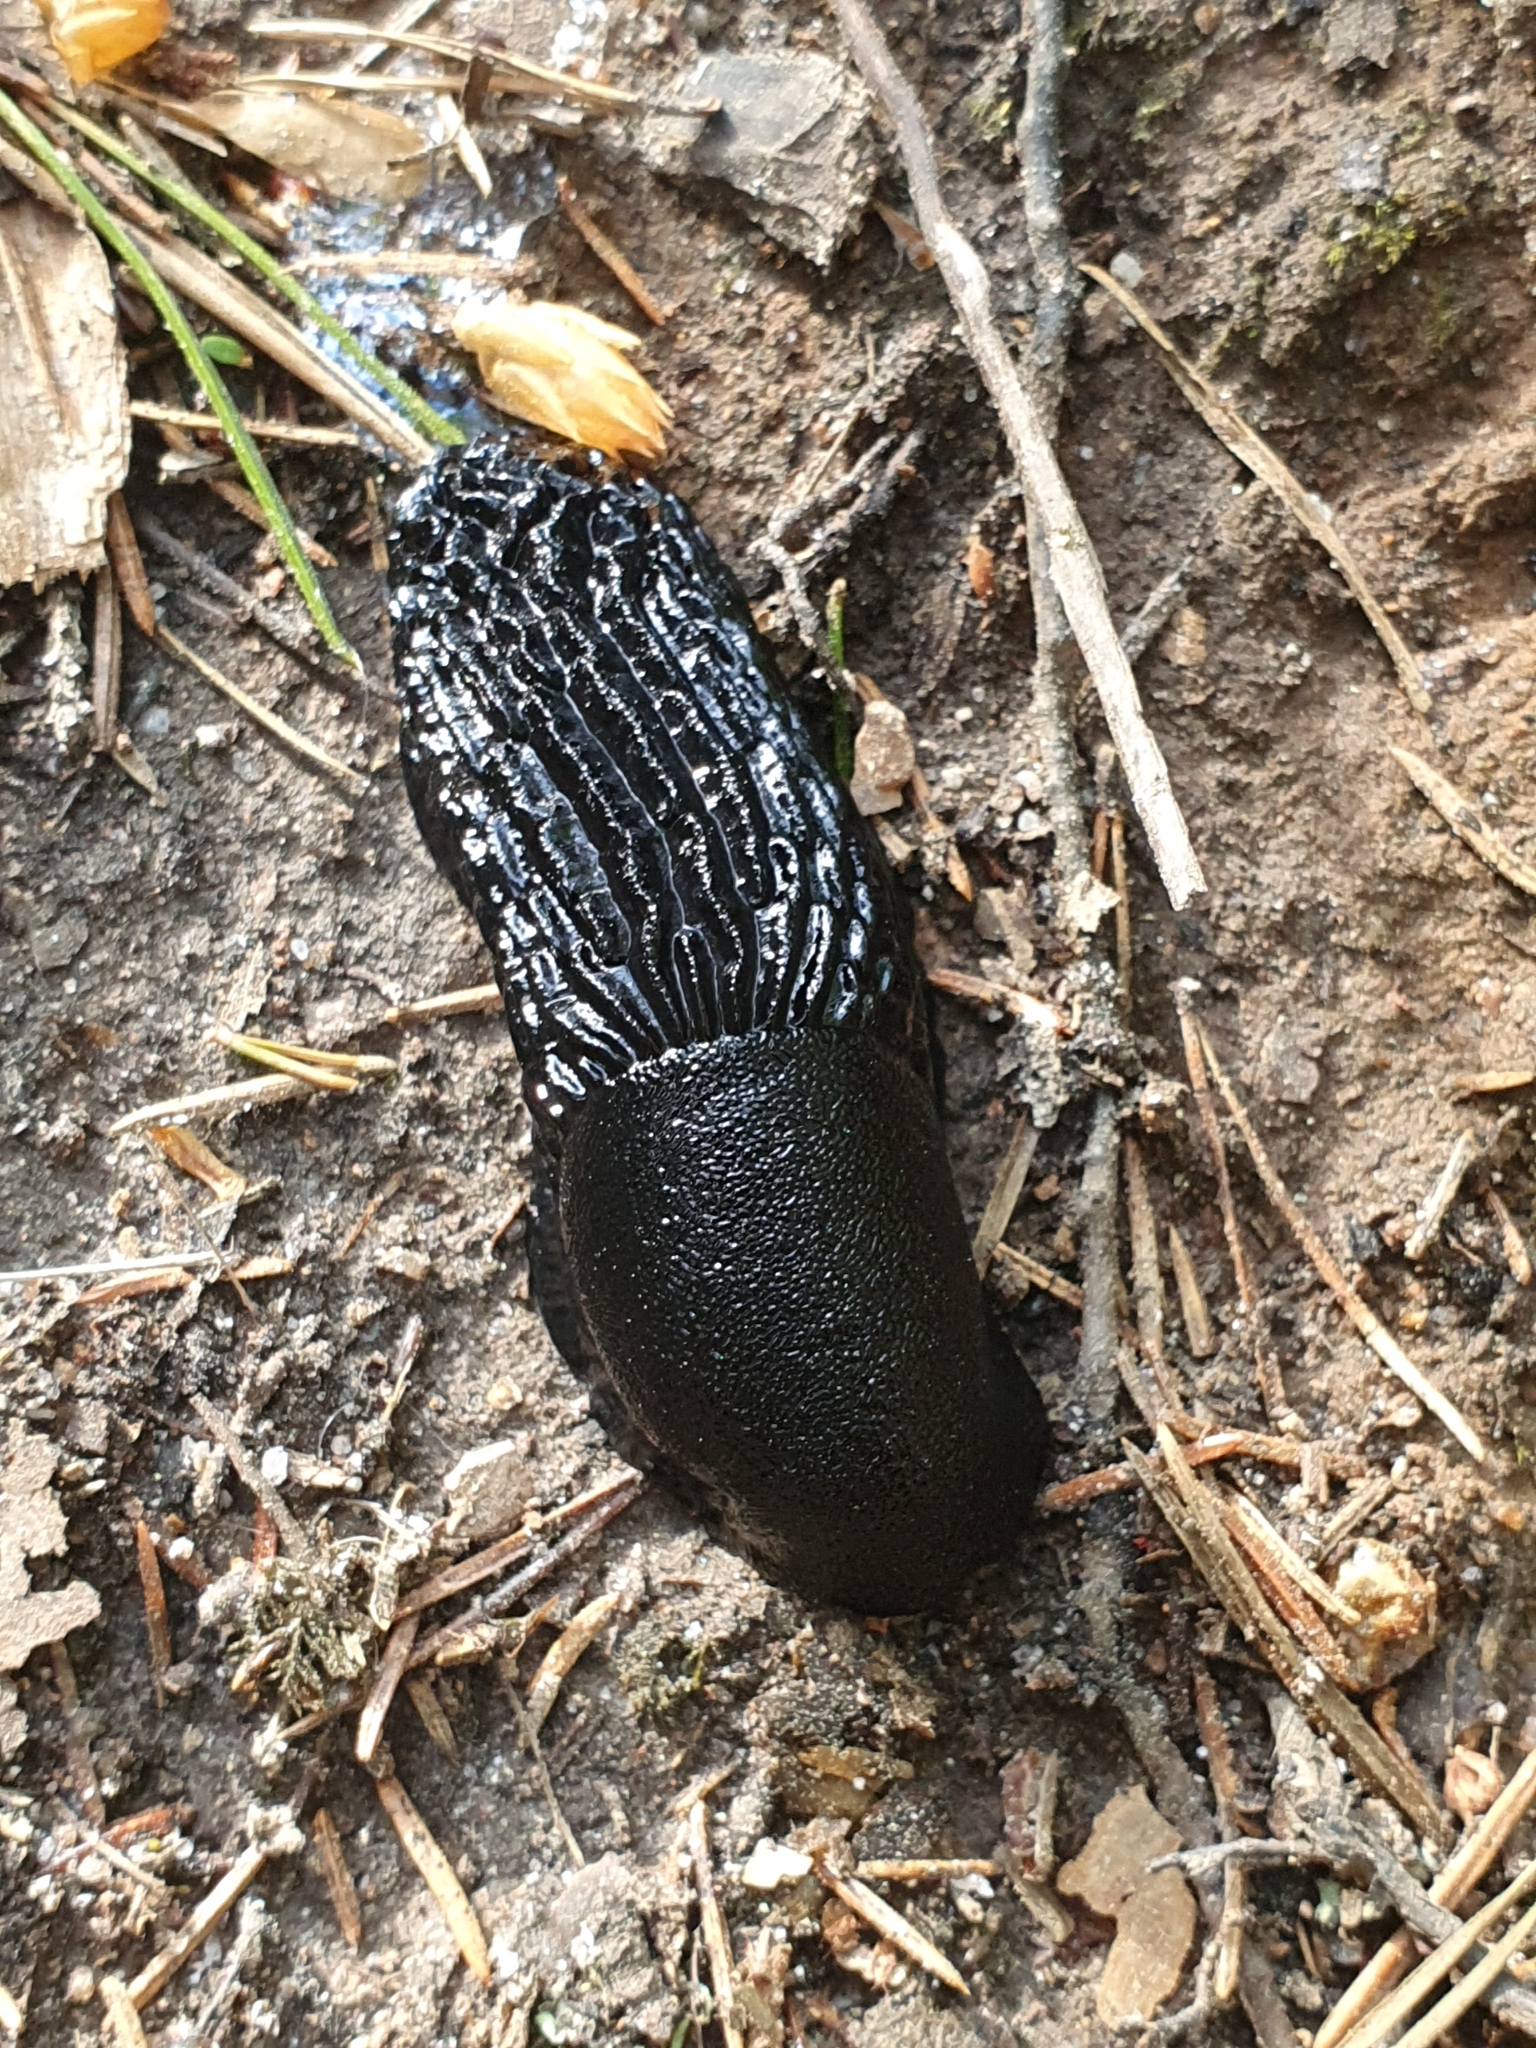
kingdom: Animalia
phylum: Mollusca
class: Gastropoda
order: Stylommatophora
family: Arionidae
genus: Arion
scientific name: Arion ater
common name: Black arion
